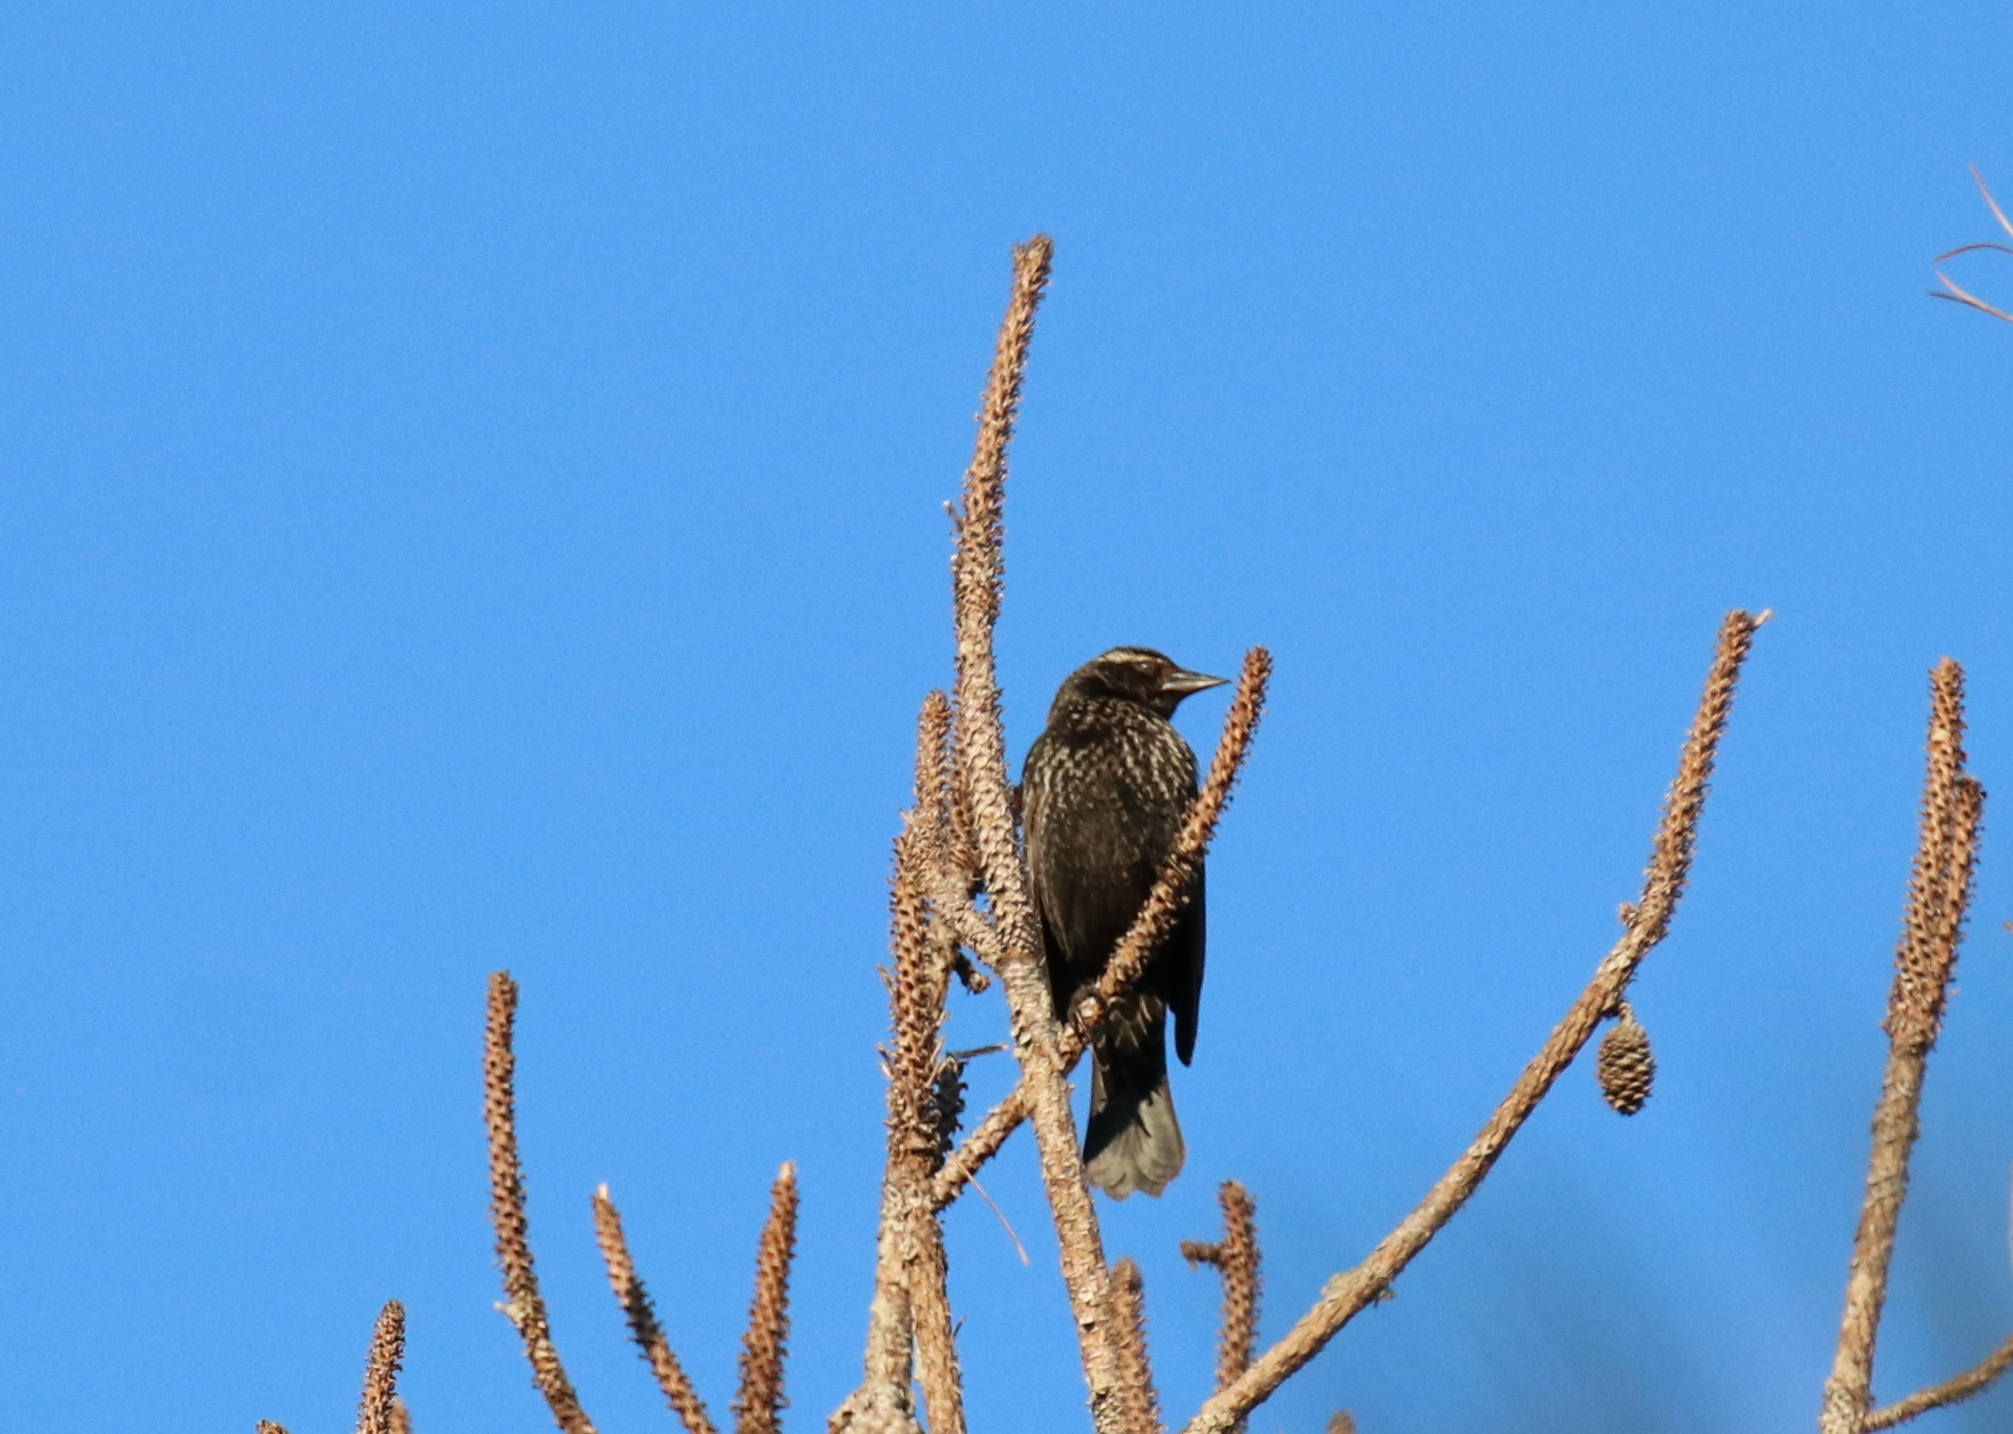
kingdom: Animalia
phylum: Chordata
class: Aves
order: Passeriformes
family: Icteridae
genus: Agelaius
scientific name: Agelaius phoeniceus
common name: Red-winged blackbird
